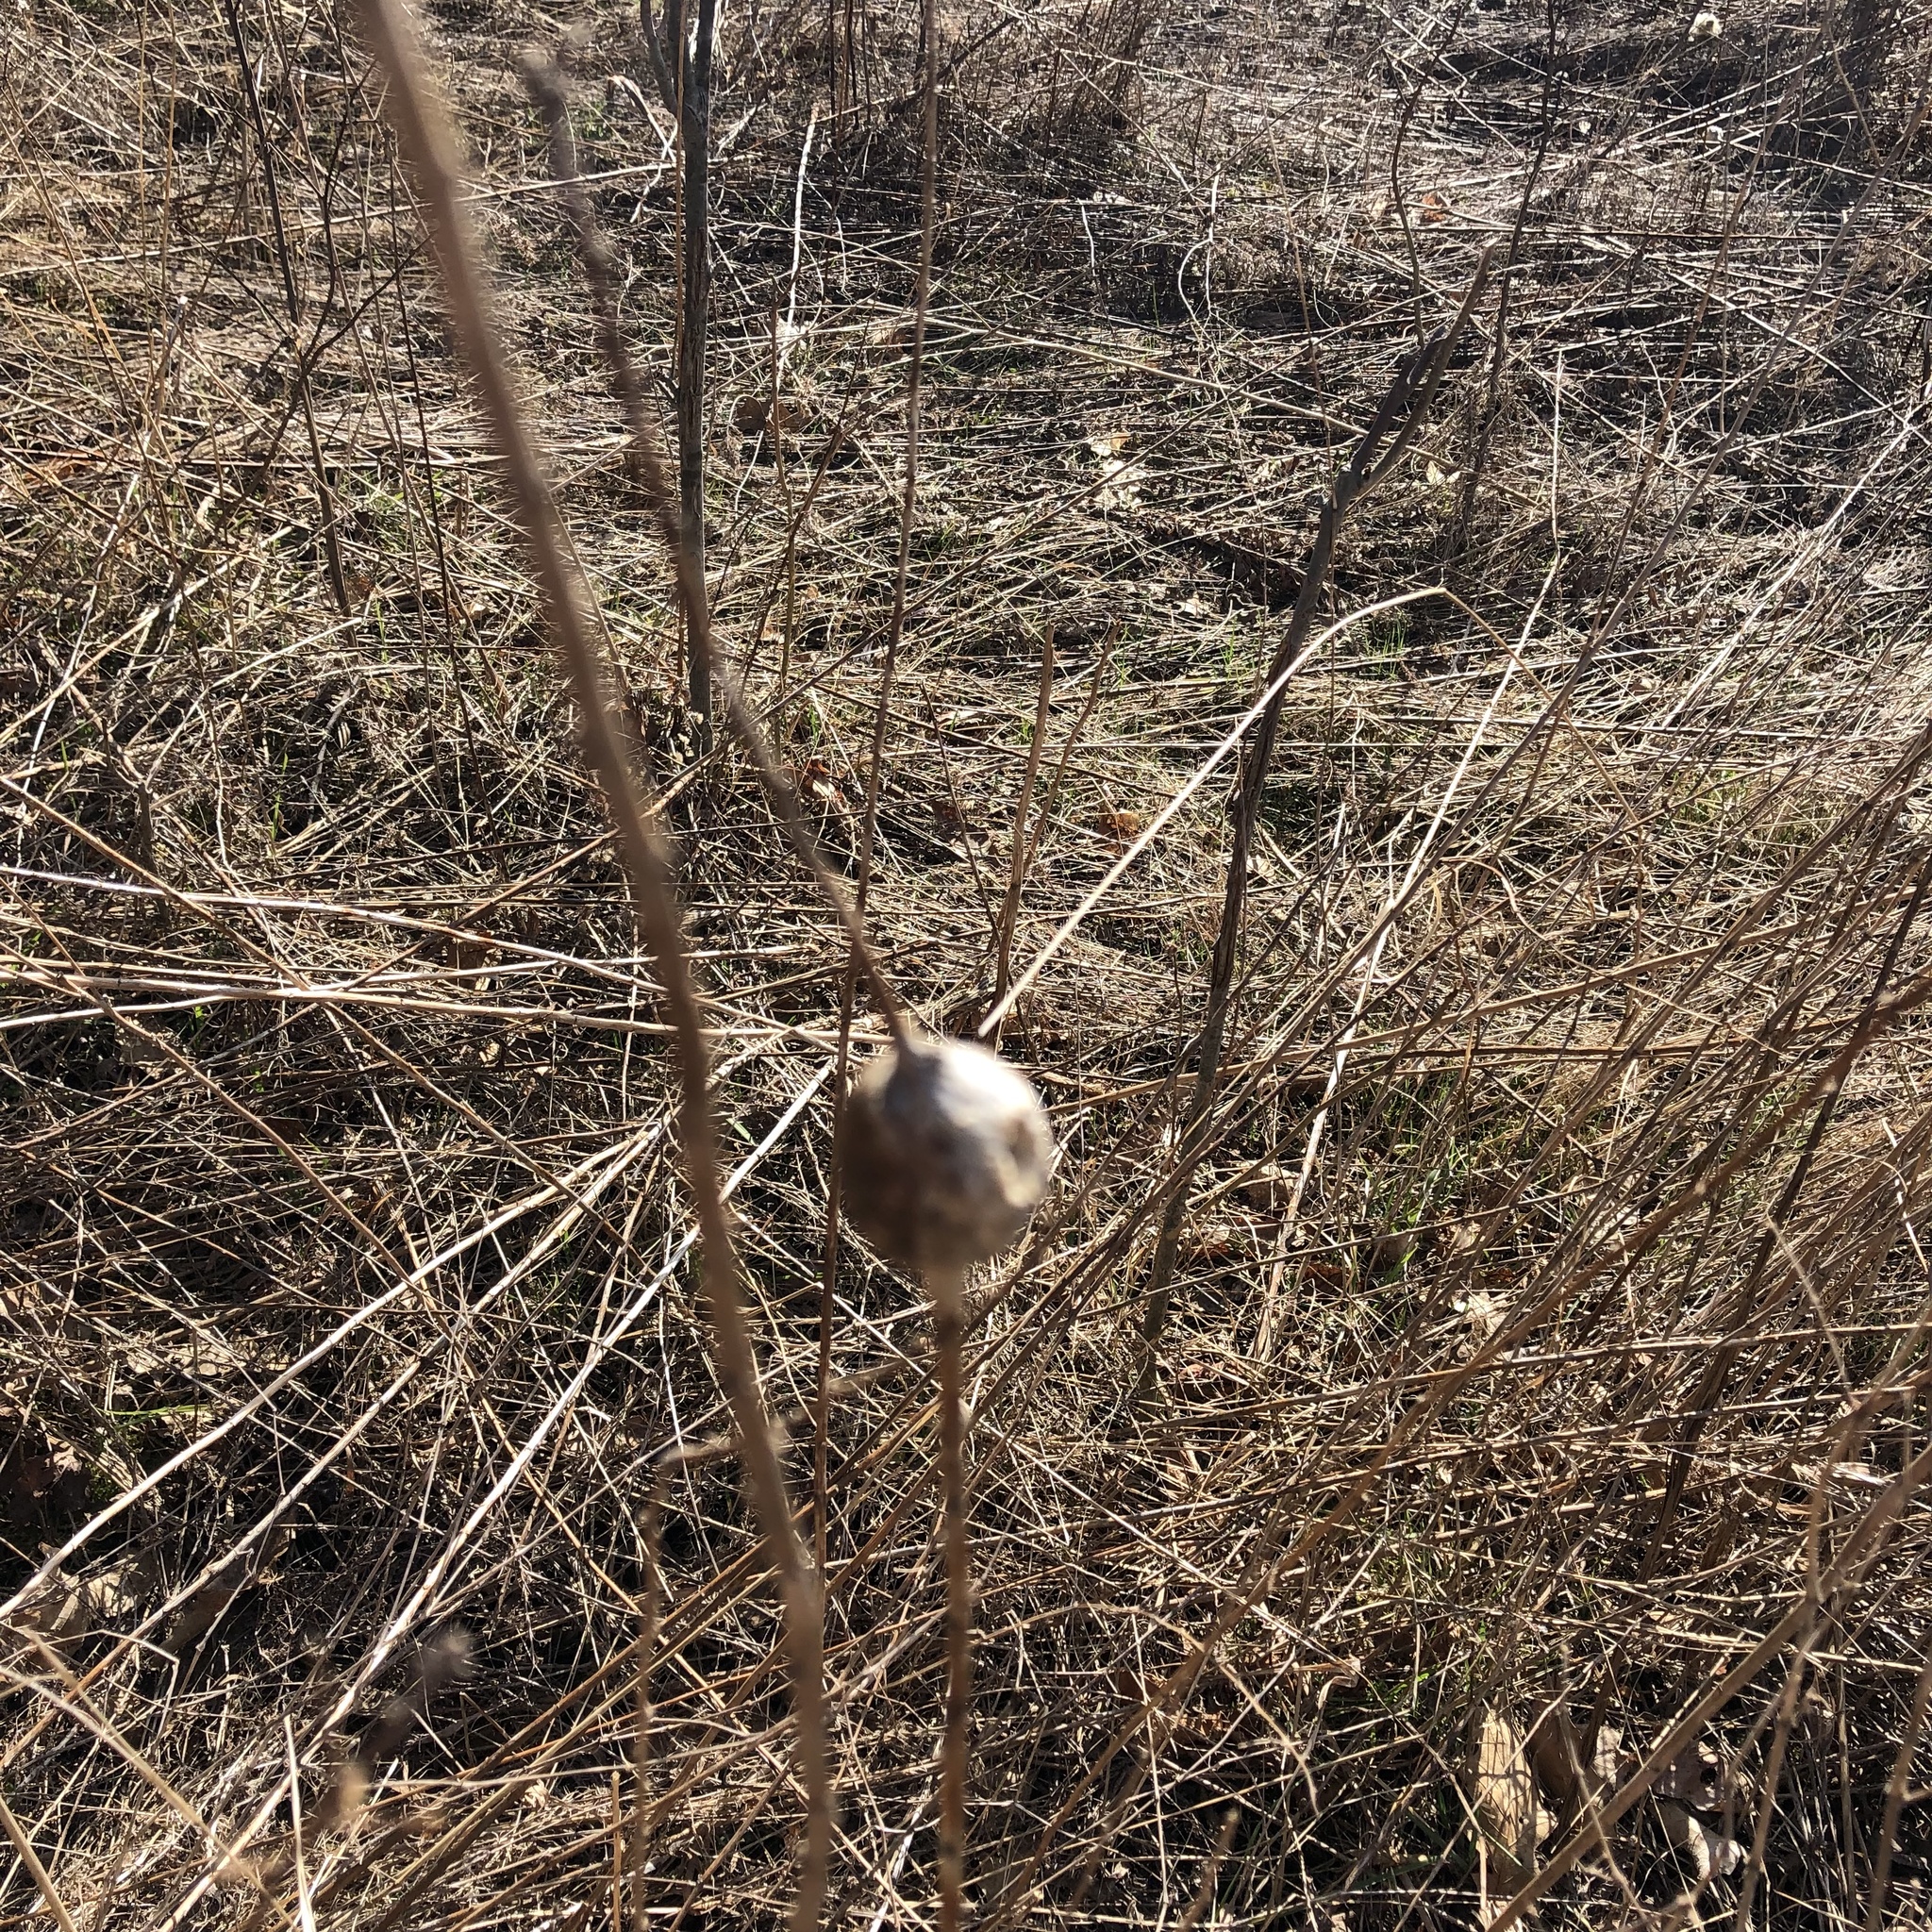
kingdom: Animalia
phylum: Arthropoda
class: Insecta
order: Diptera
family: Tephritidae
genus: Eurosta
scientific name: Eurosta solidaginis
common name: Goldenrod gall fly
